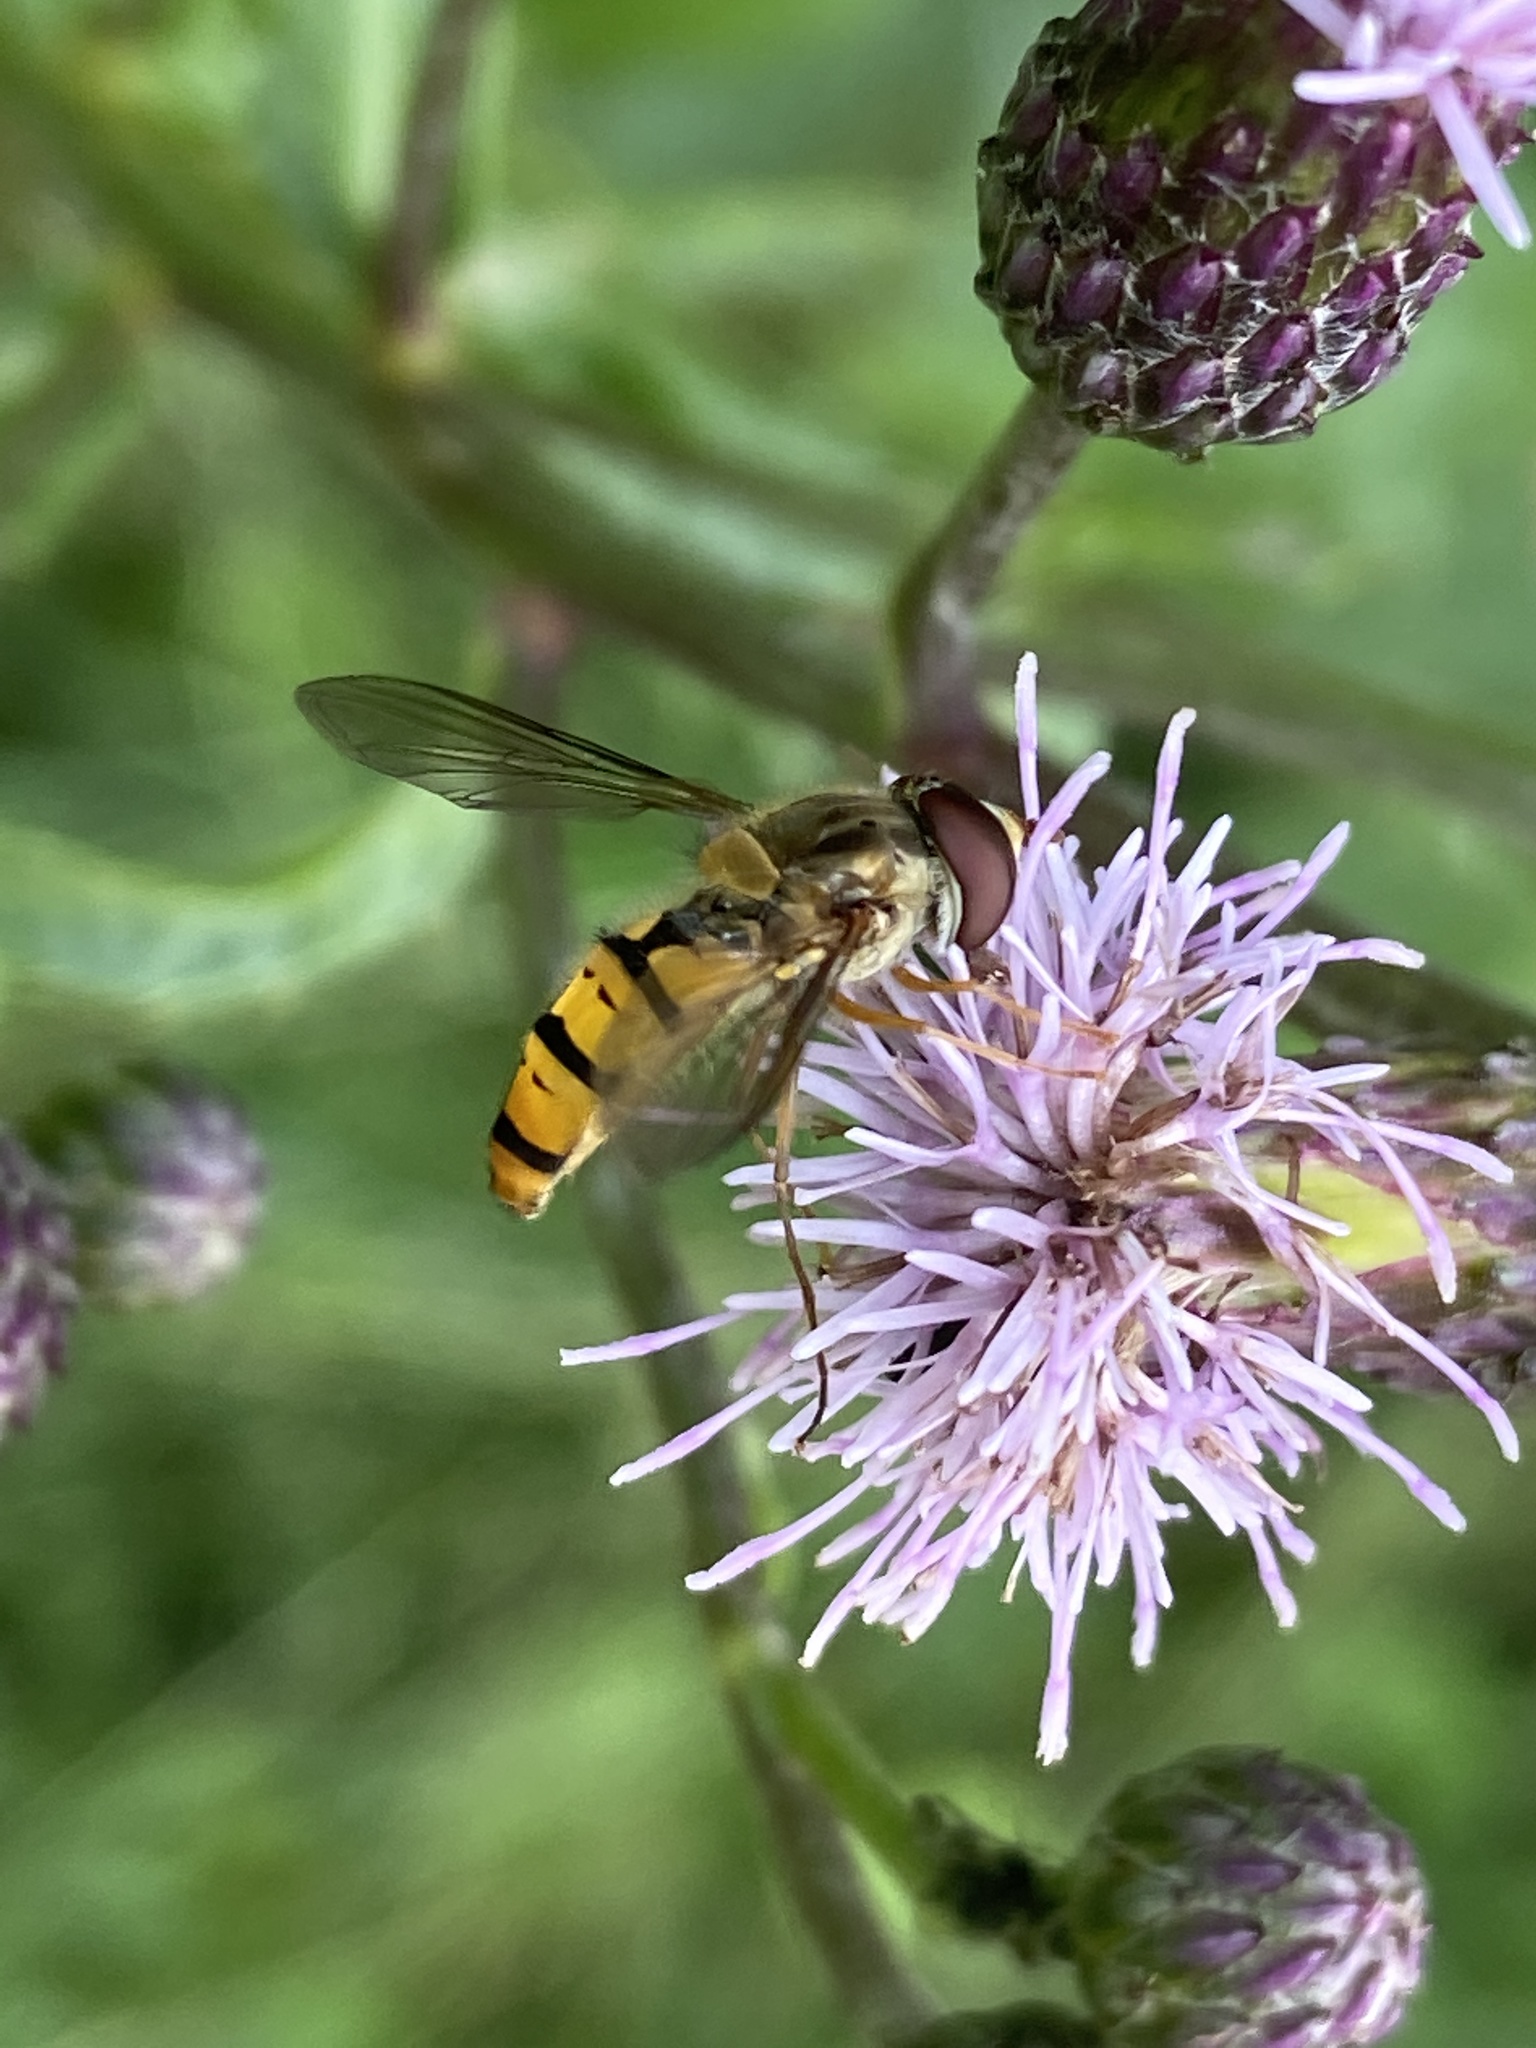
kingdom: Animalia
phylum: Arthropoda
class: Insecta
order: Diptera
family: Syrphidae
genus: Episyrphus
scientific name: Episyrphus balteatus
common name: Marmalade hoverfly
